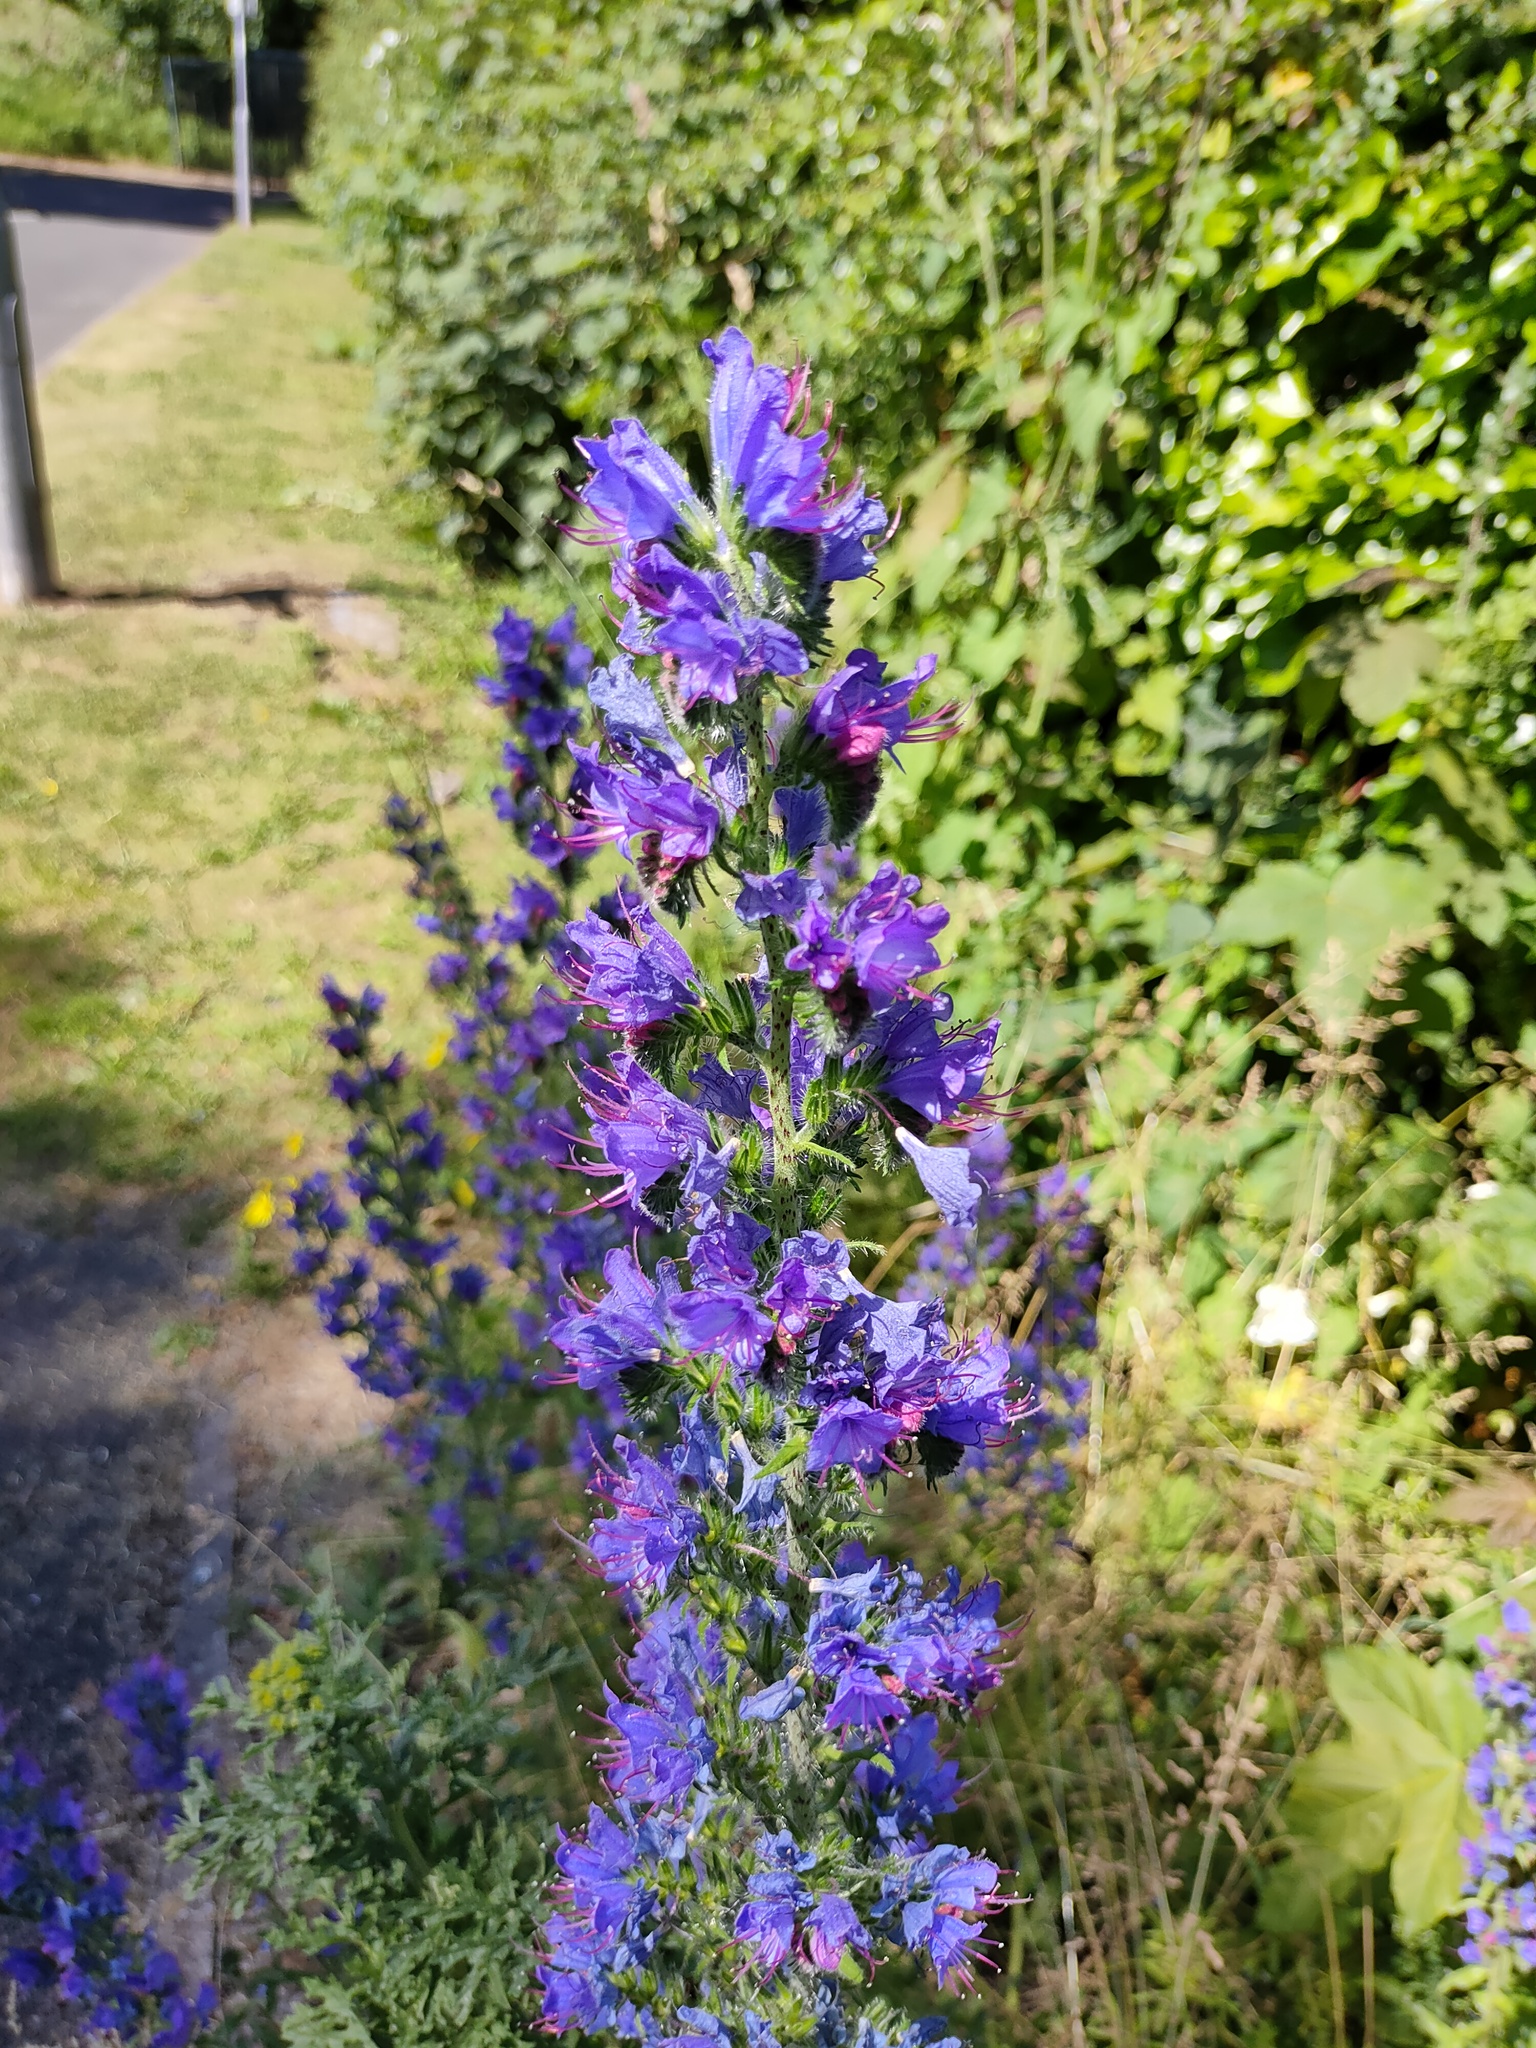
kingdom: Plantae
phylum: Tracheophyta
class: Magnoliopsida
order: Boraginales
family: Boraginaceae
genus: Echium
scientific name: Echium vulgare
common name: Common viper's bugloss
